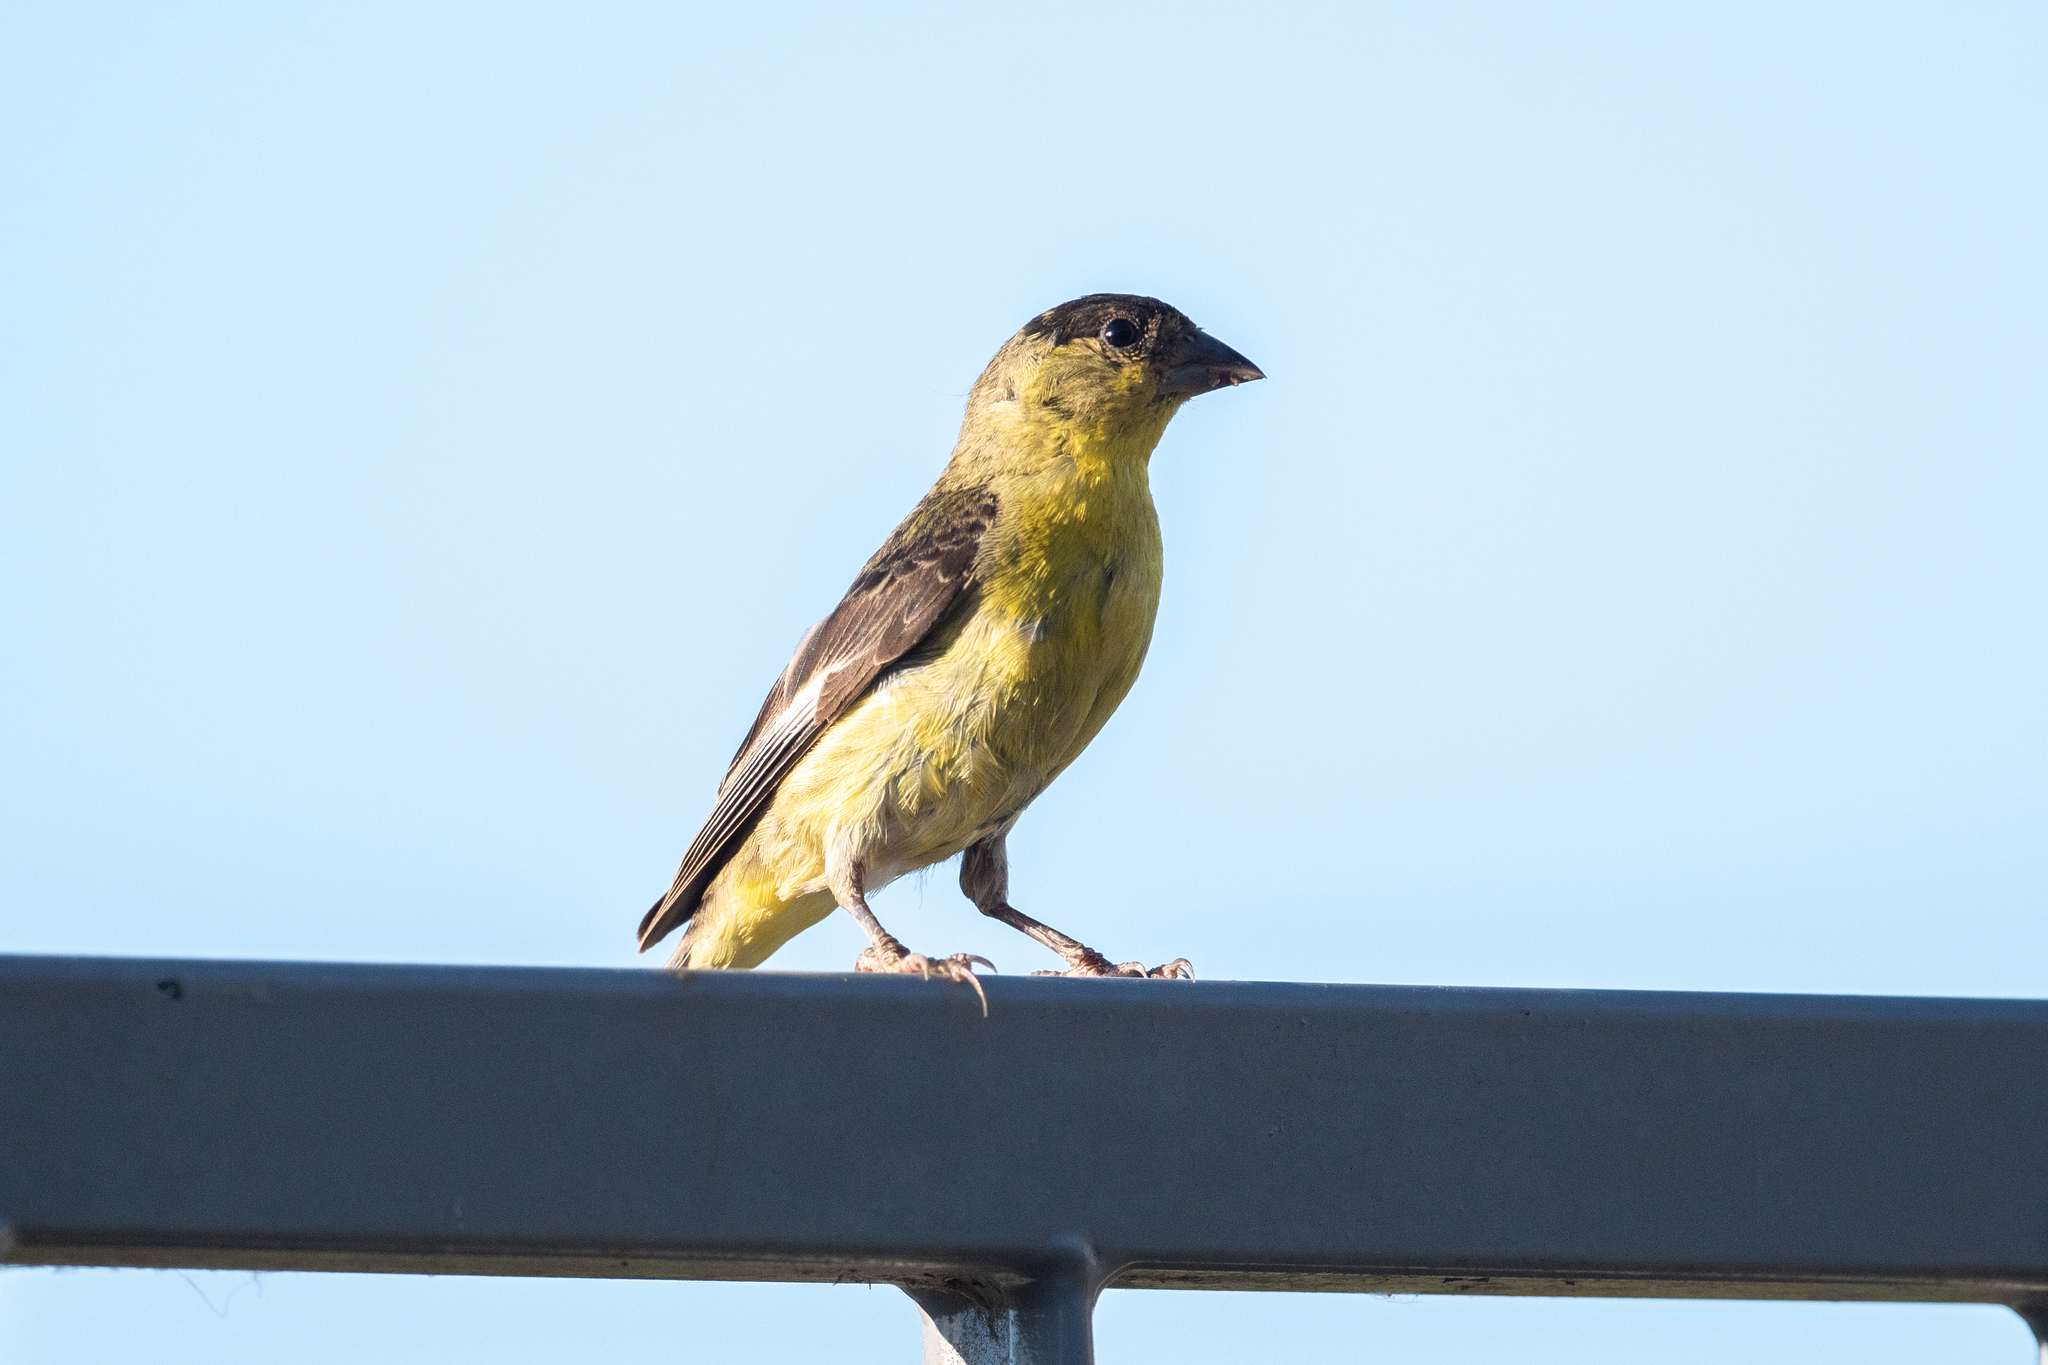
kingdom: Animalia
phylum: Chordata
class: Aves
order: Passeriformes
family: Fringillidae
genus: Spinus
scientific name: Spinus psaltria
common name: Lesser goldfinch
